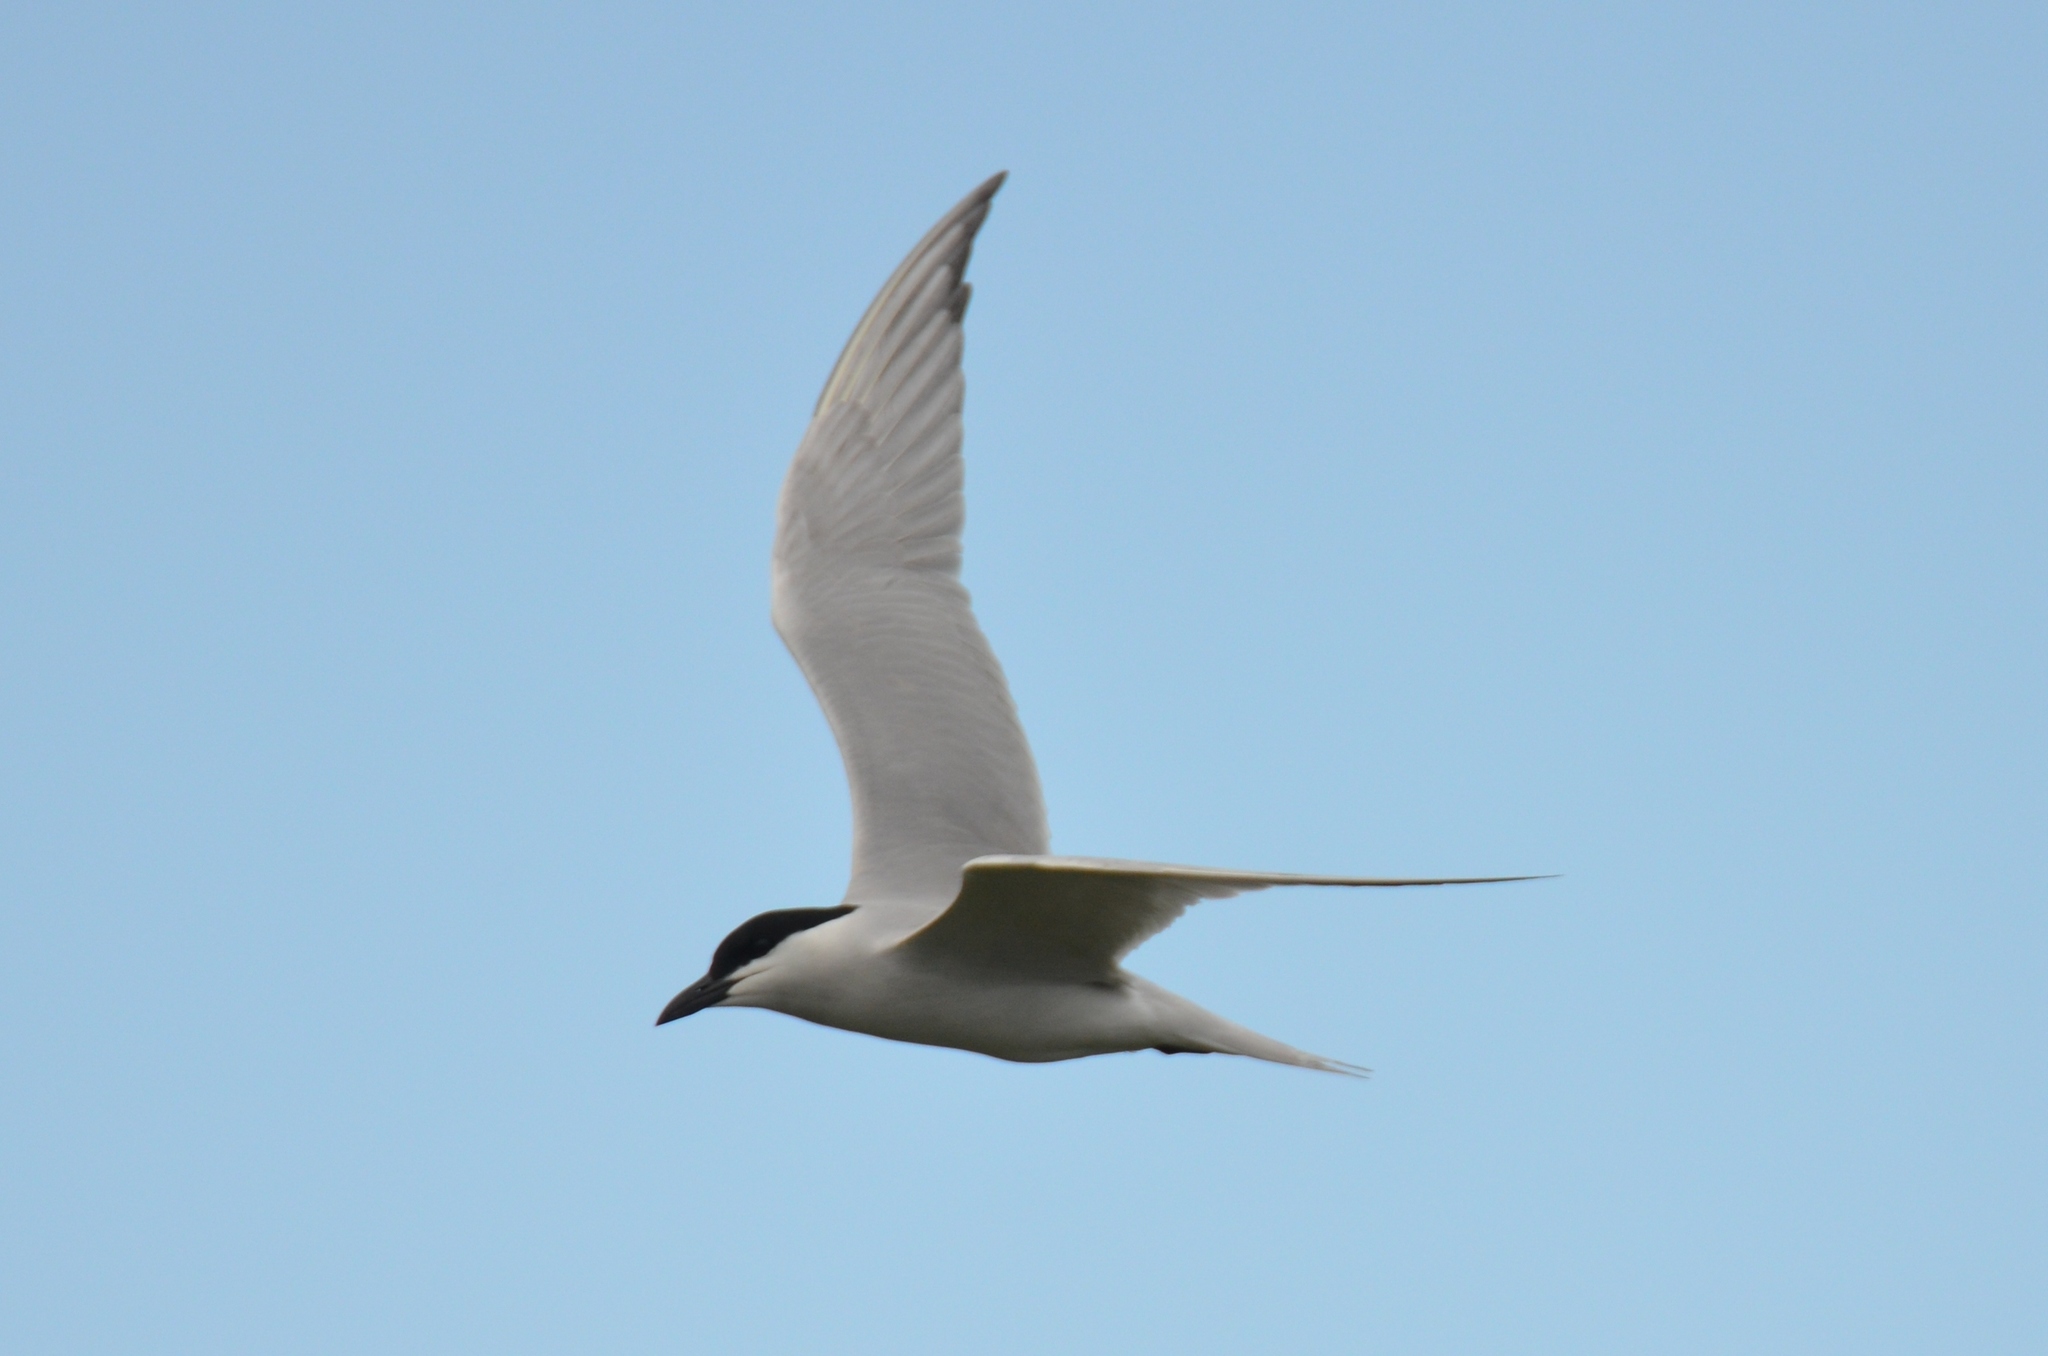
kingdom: Animalia
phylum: Chordata
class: Aves
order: Charadriiformes
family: Laridae
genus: Gelochelidon
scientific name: Gelochelidon nilotica
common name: Gull-billed tern
